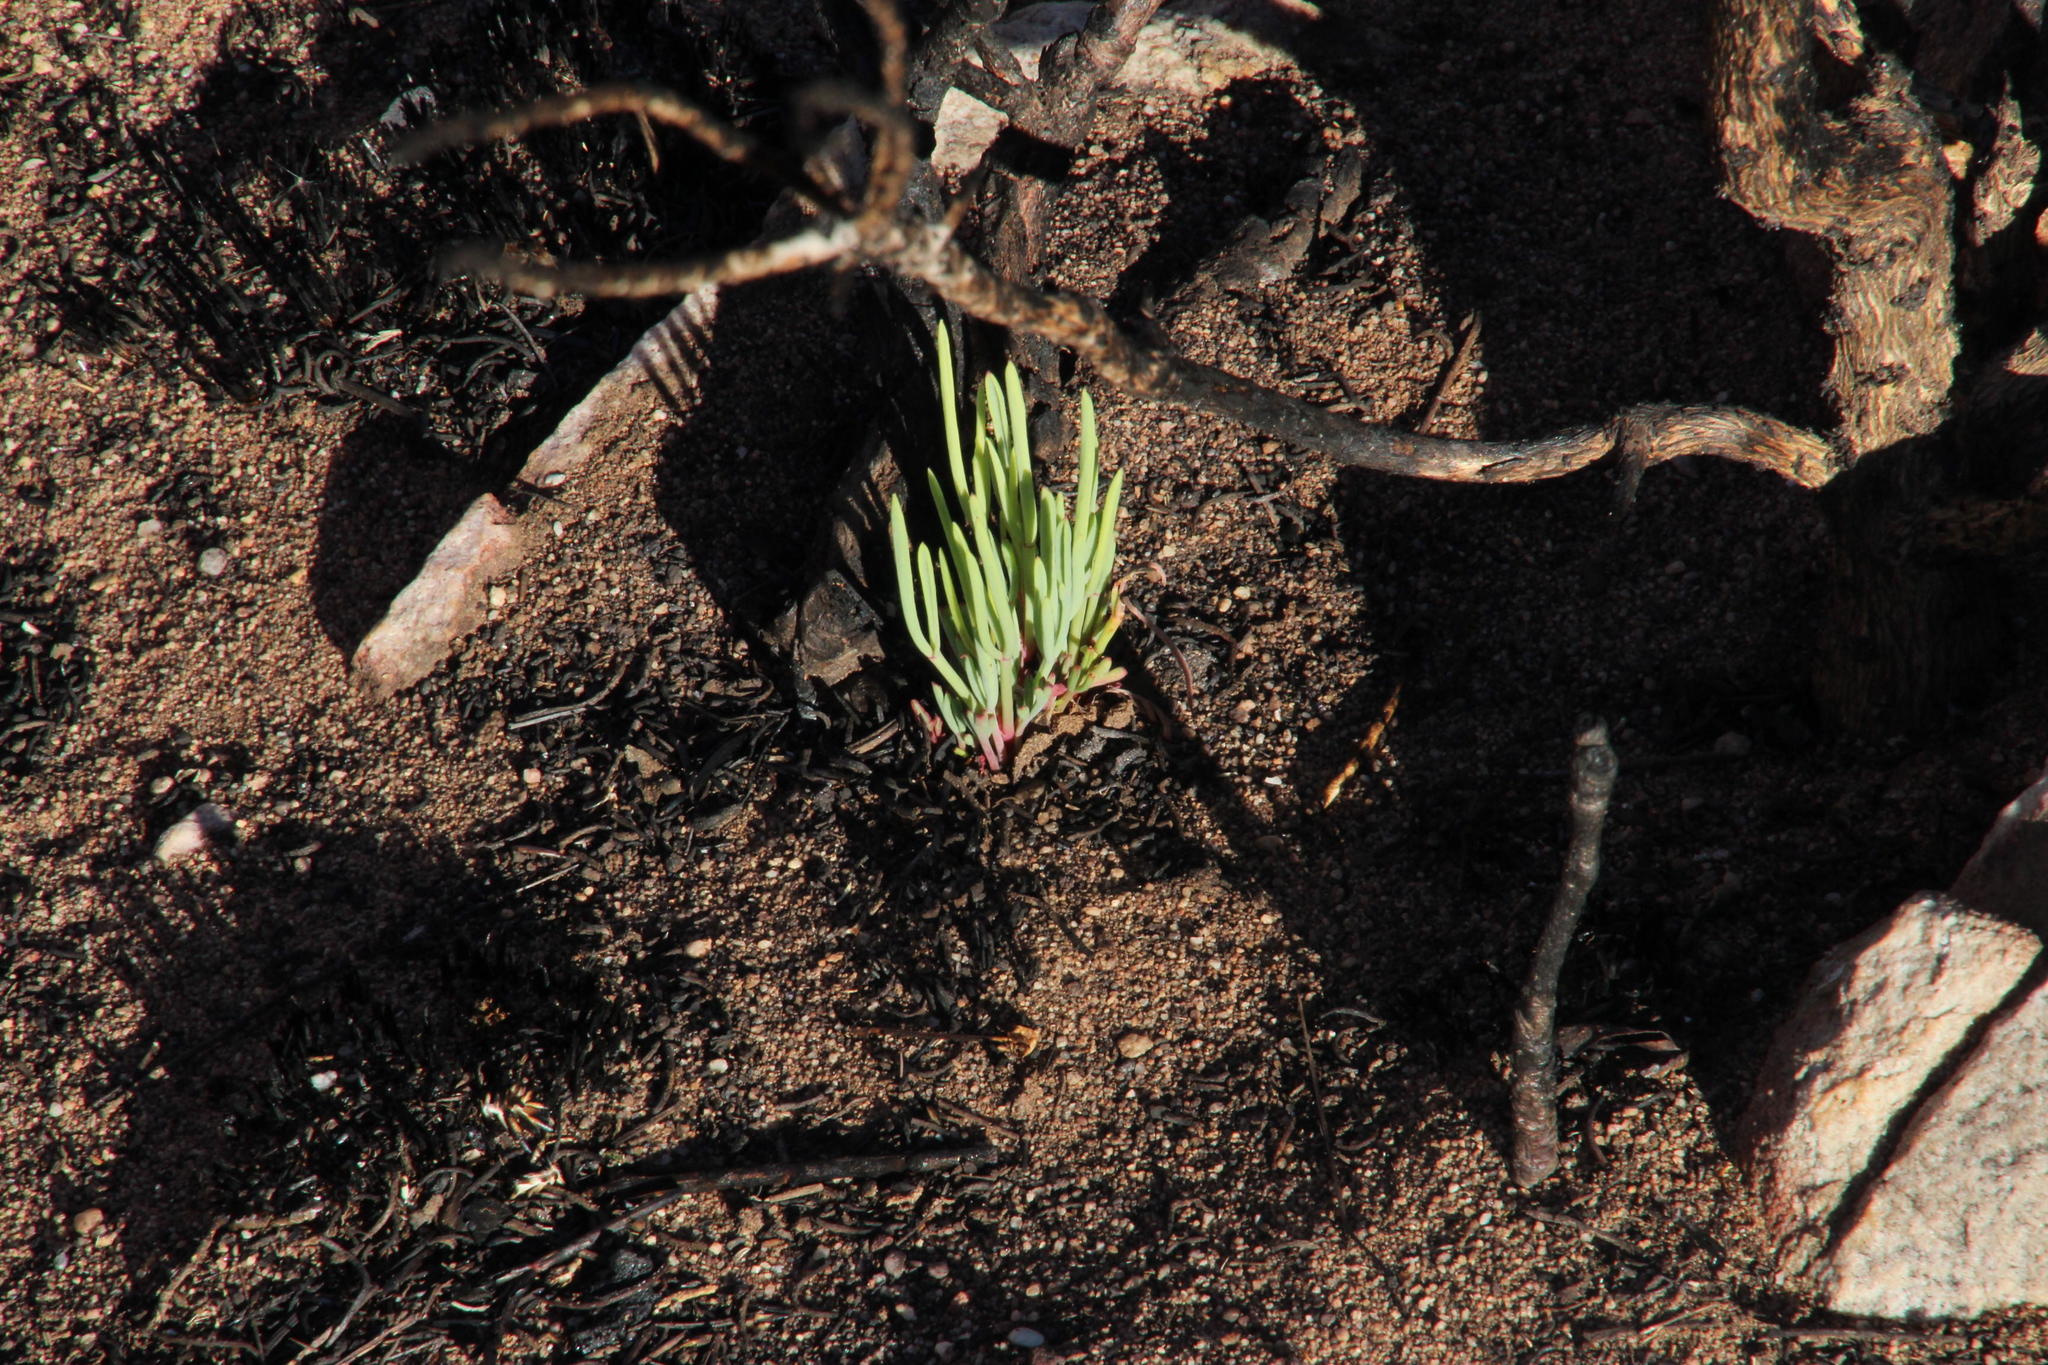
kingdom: Plantae
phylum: Tracheophyta
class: Magnoliopsida
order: Geraniales
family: Geraniaceae
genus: Pelargonium
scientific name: Pelargonium laevigatum
